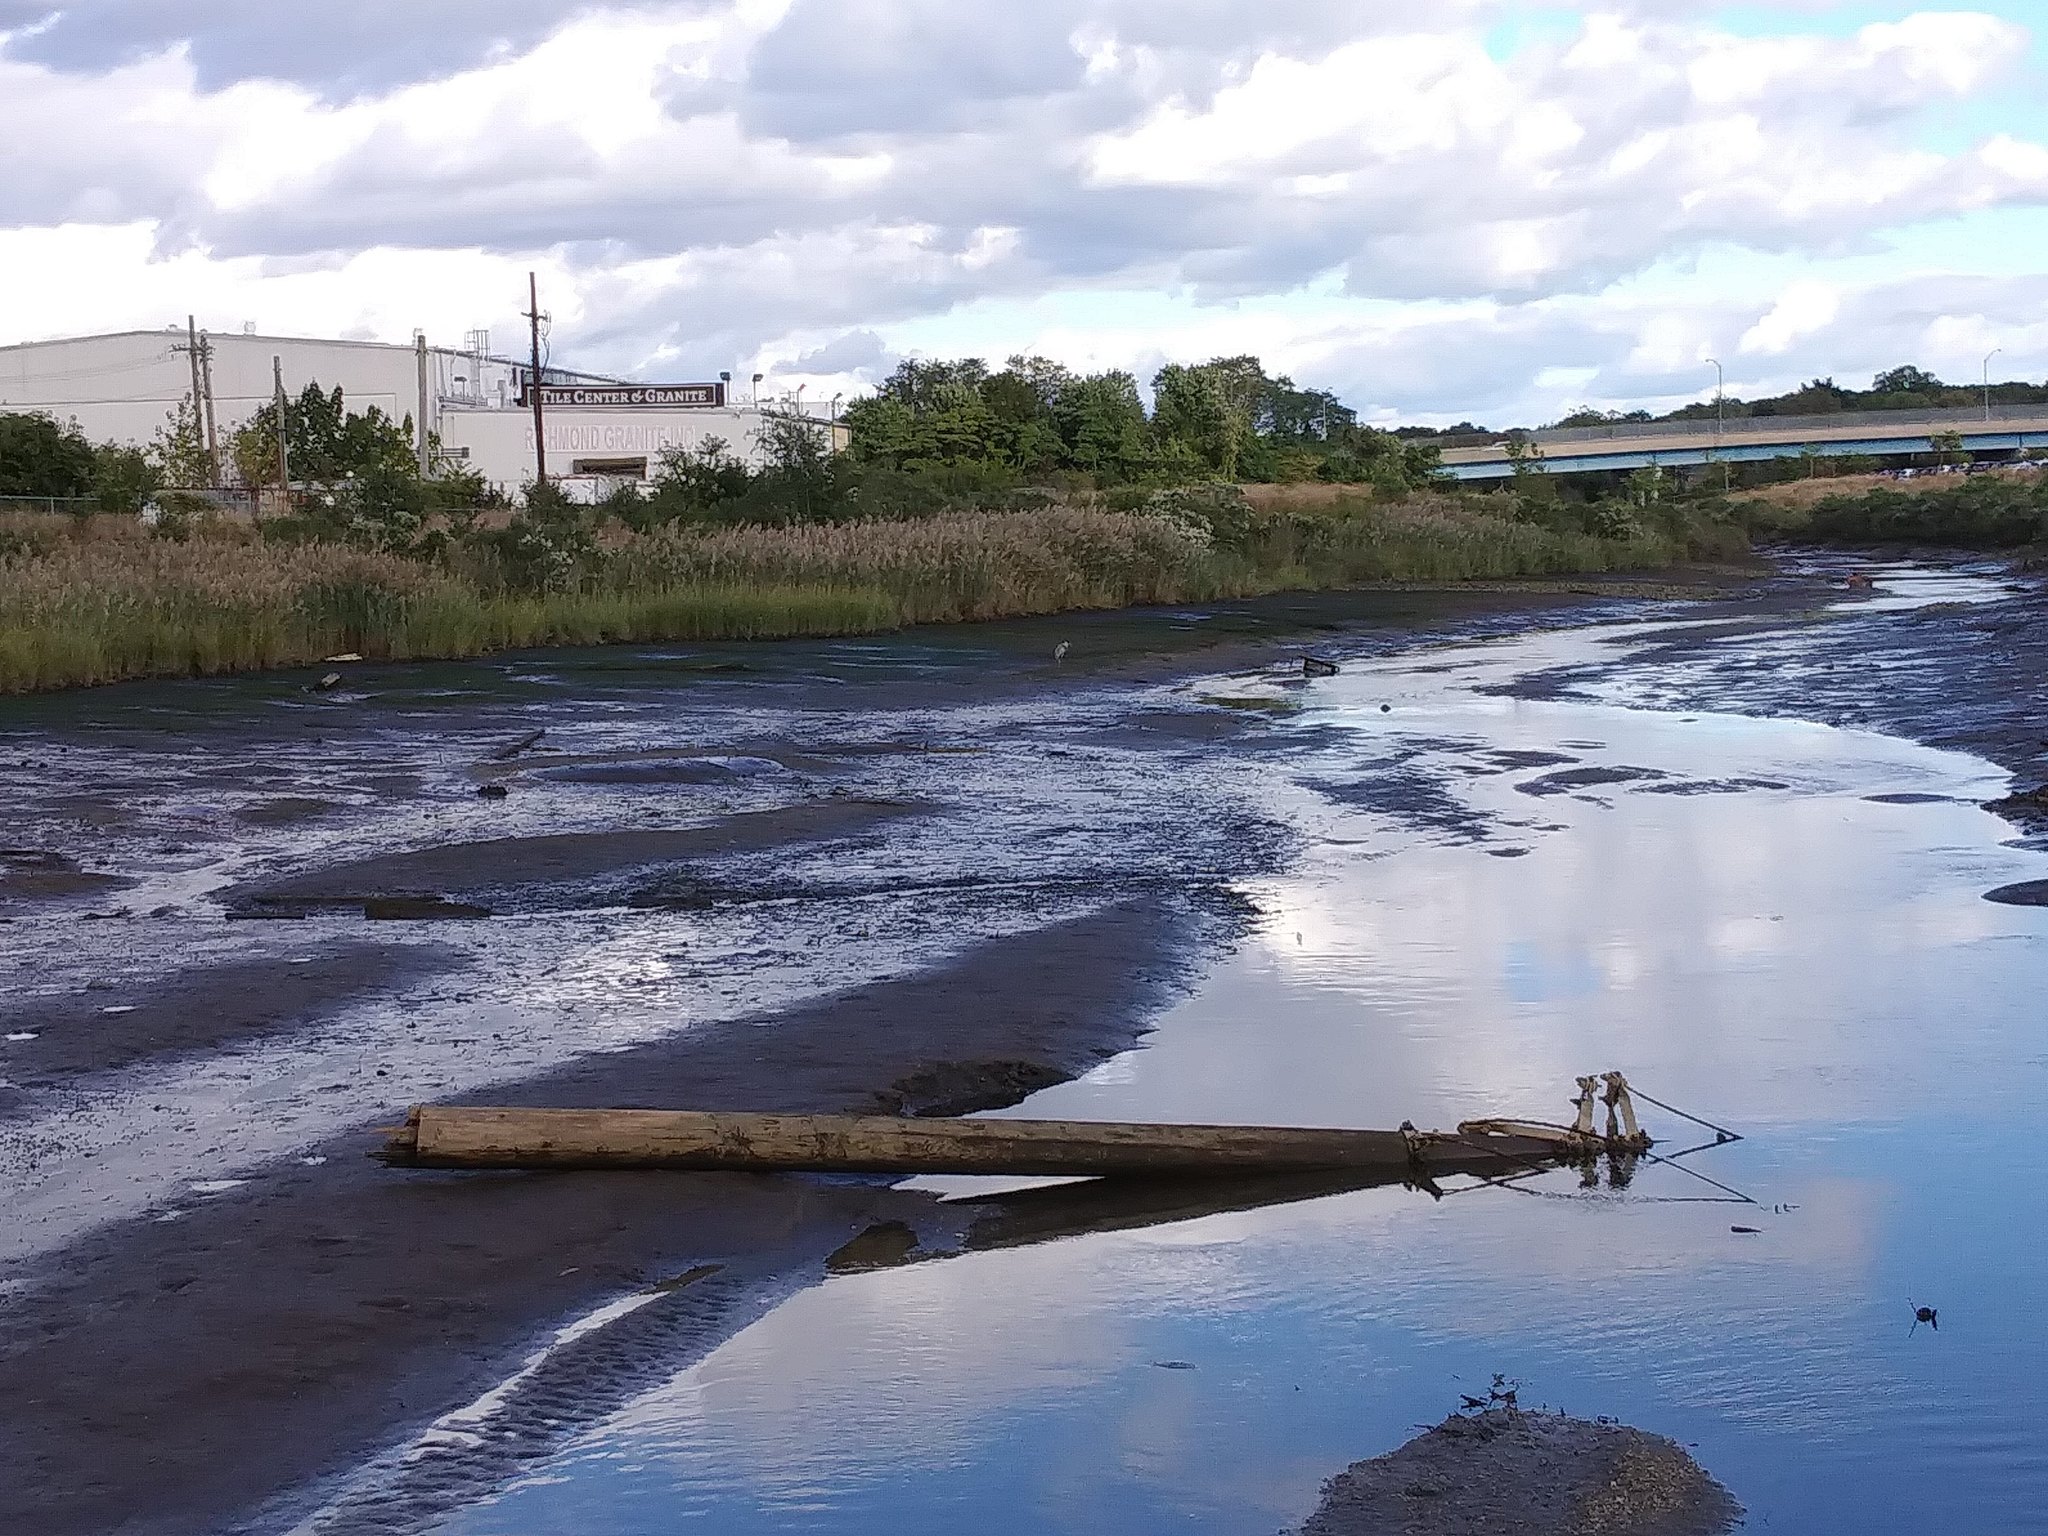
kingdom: Animalia
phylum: Chordata
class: Aves
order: Pelecaniformes
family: Ardeidae
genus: Ardea
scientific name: Ardea herodias
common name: Great blue heron
